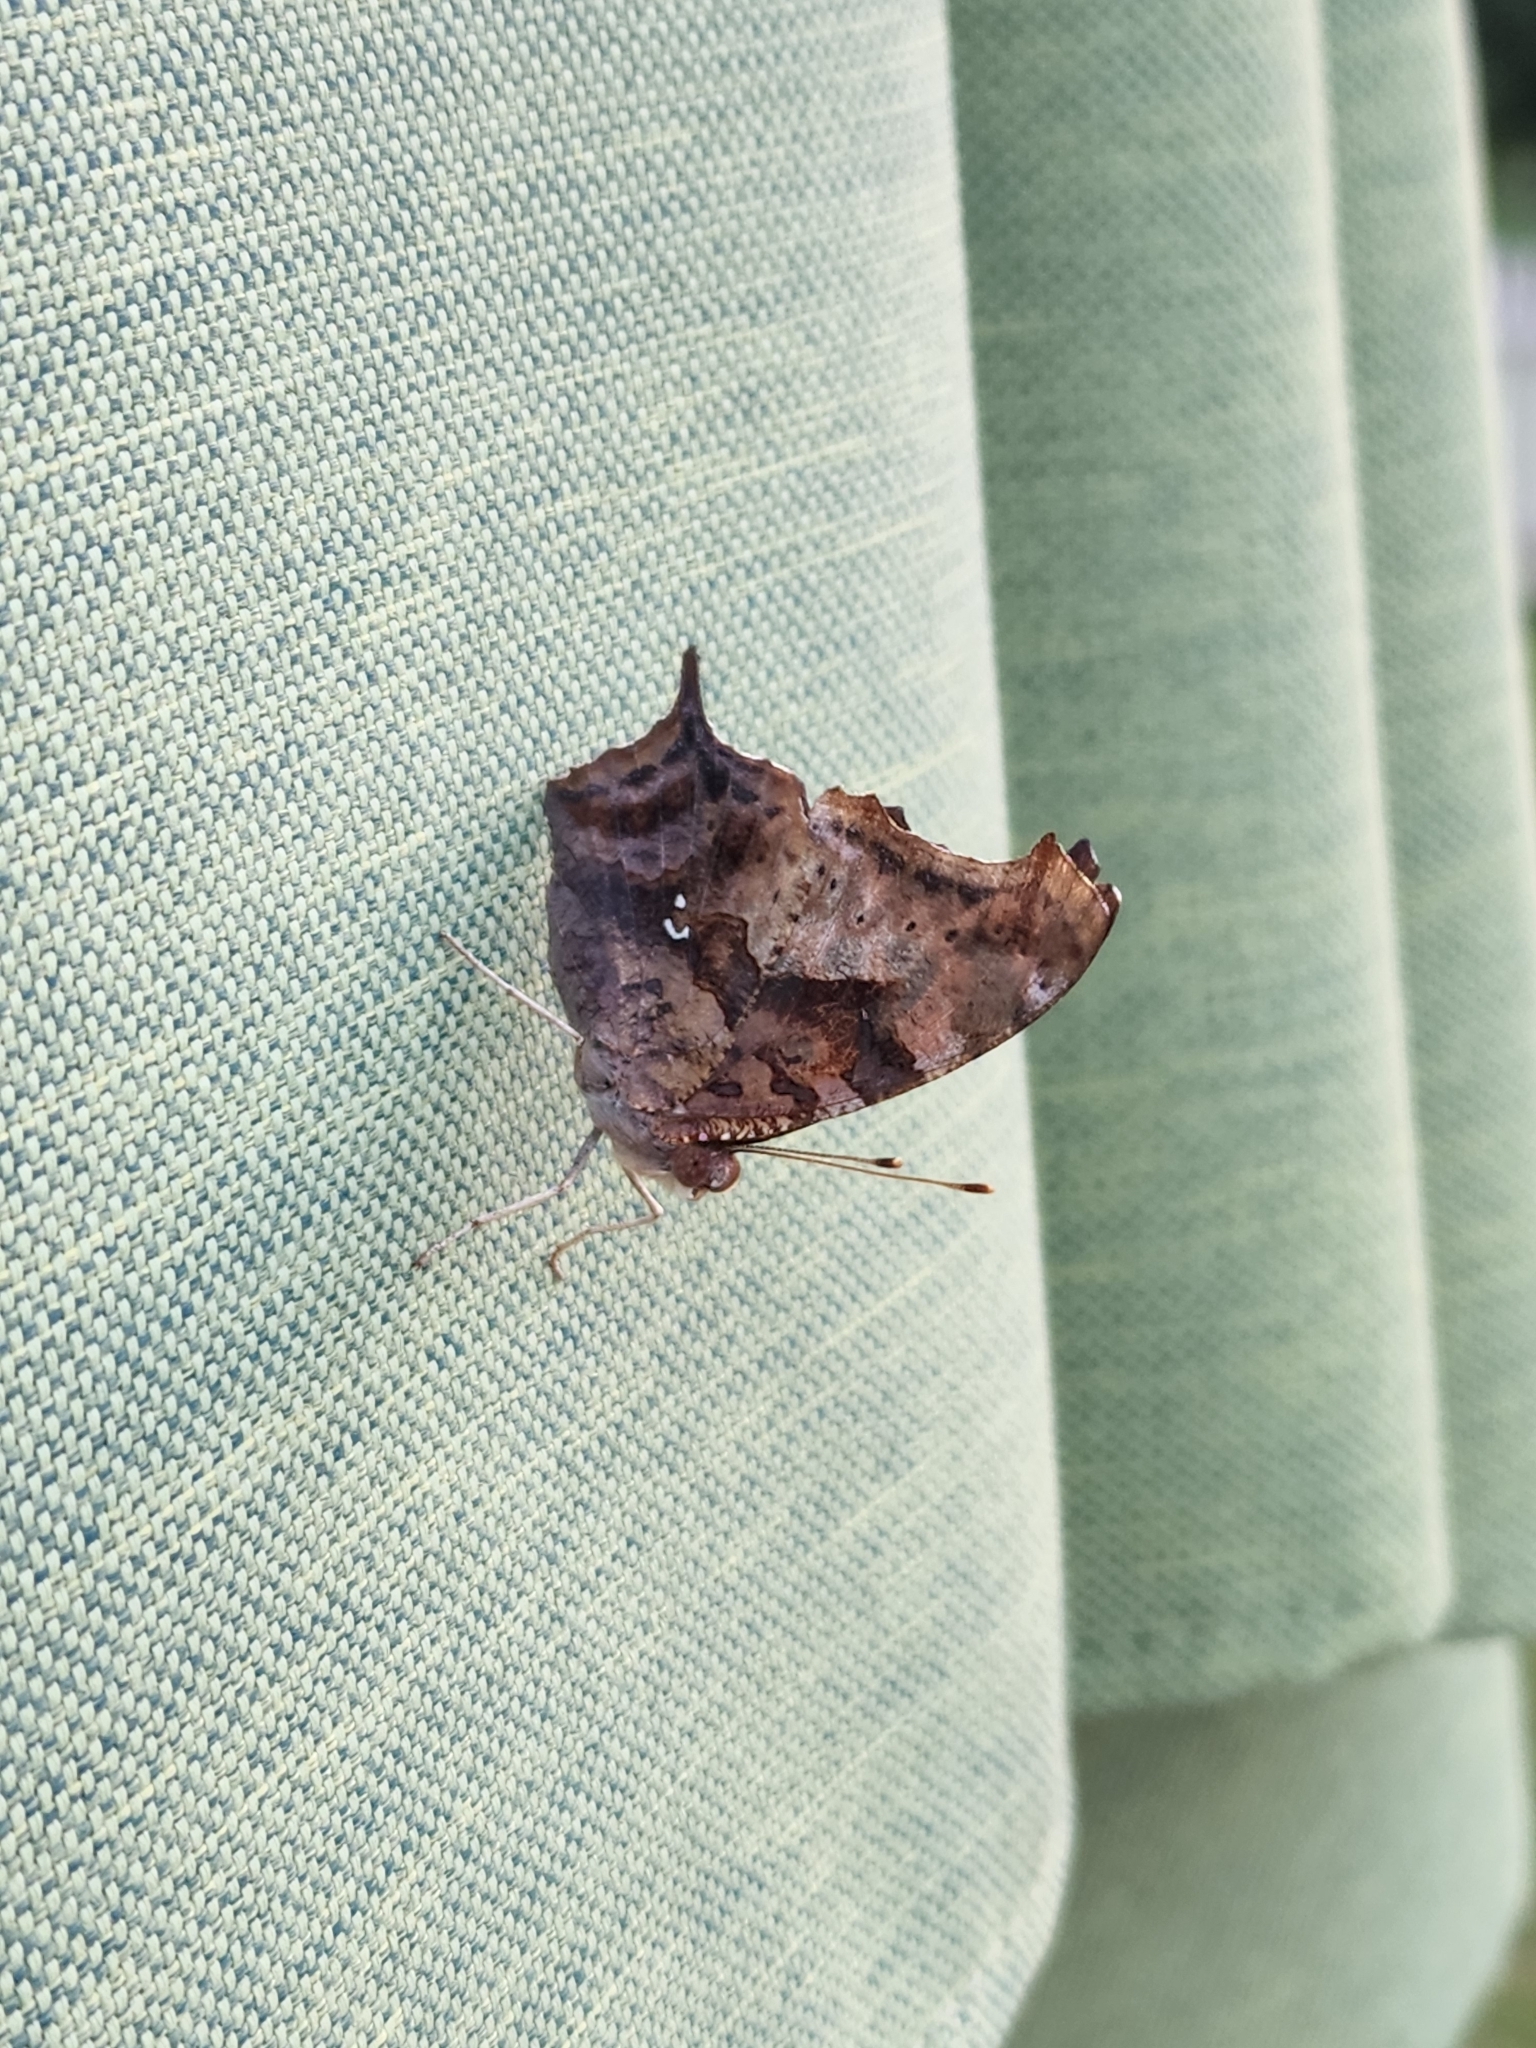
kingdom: Animalia
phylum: Arthropoda
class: Insecta
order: Lepidoptera
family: Nymphalidae
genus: Polygonia
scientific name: Polygonia interrogationis
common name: Question mark
